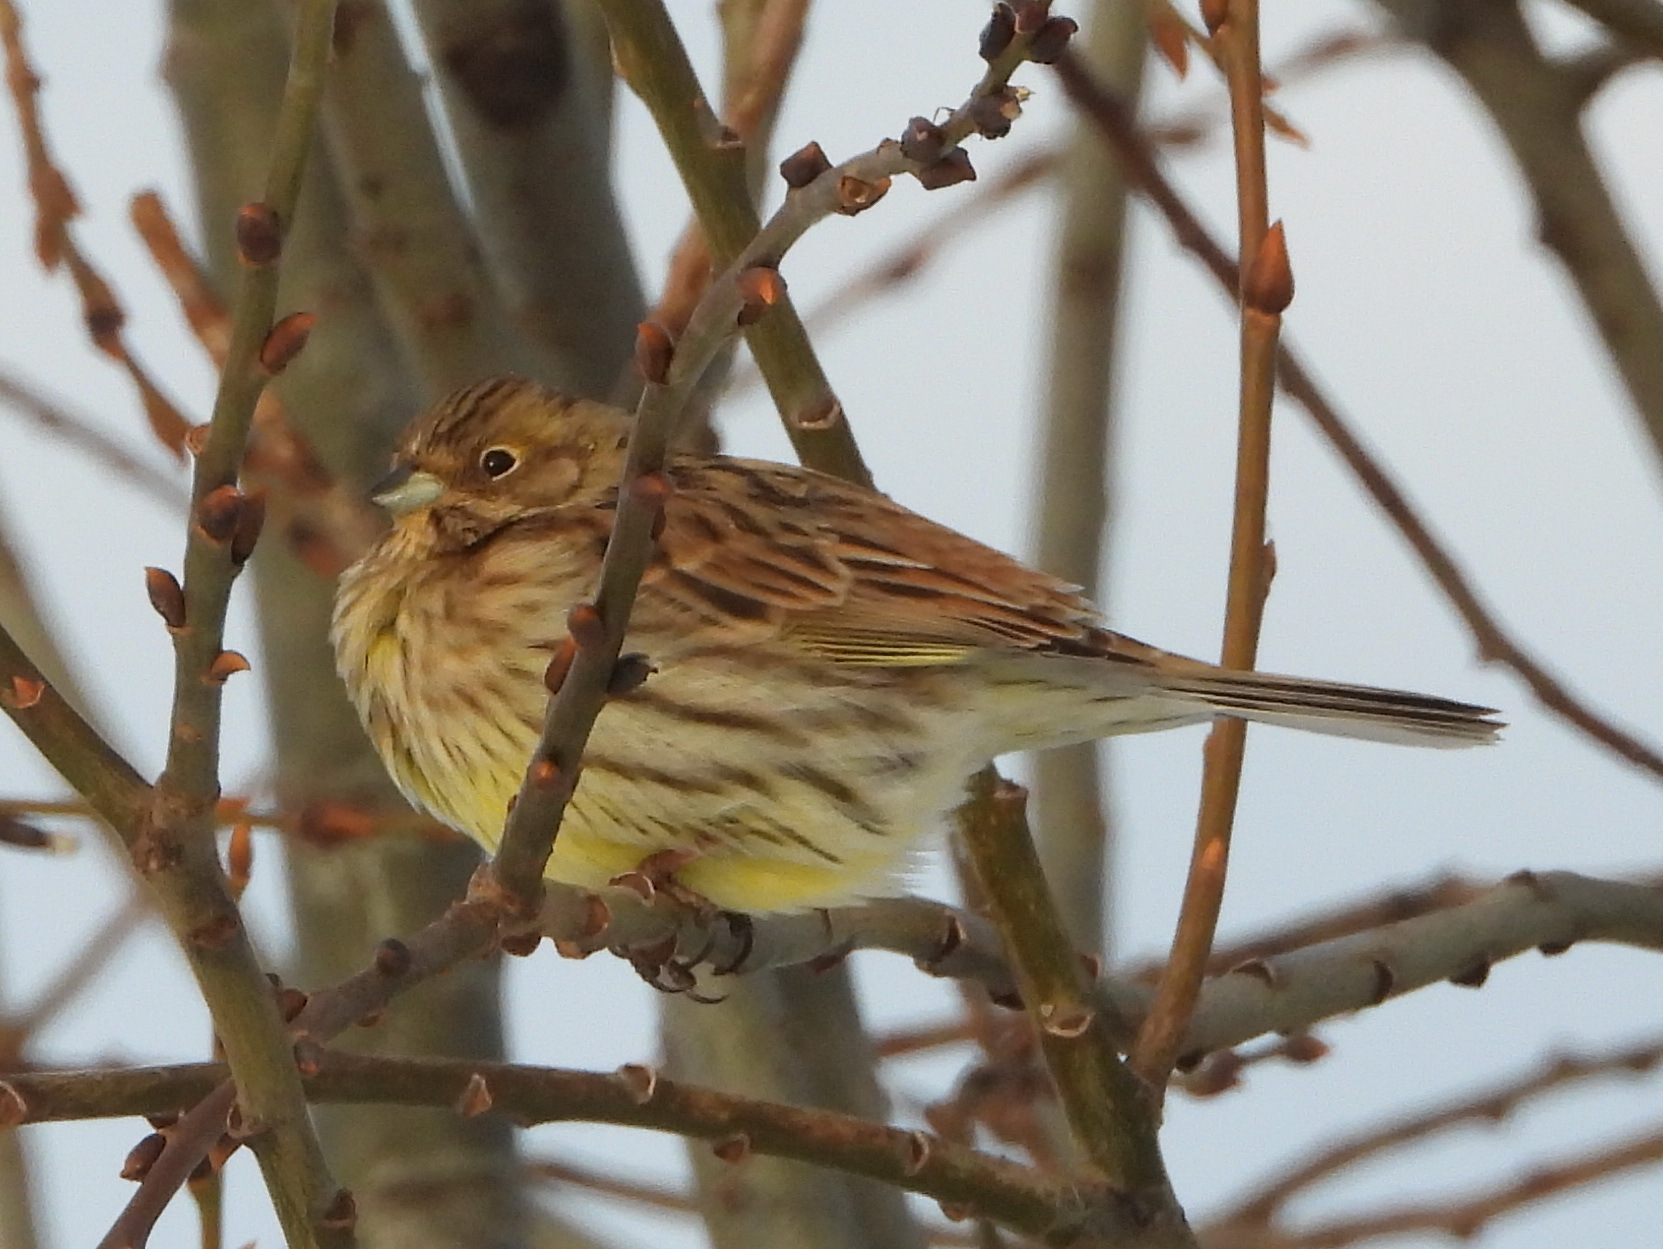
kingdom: Animalia
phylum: Chordata
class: Aves
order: Passeriformes
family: Emberizidae
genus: Emberiza
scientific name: Emberiza citrinella
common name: Yellowhammer
